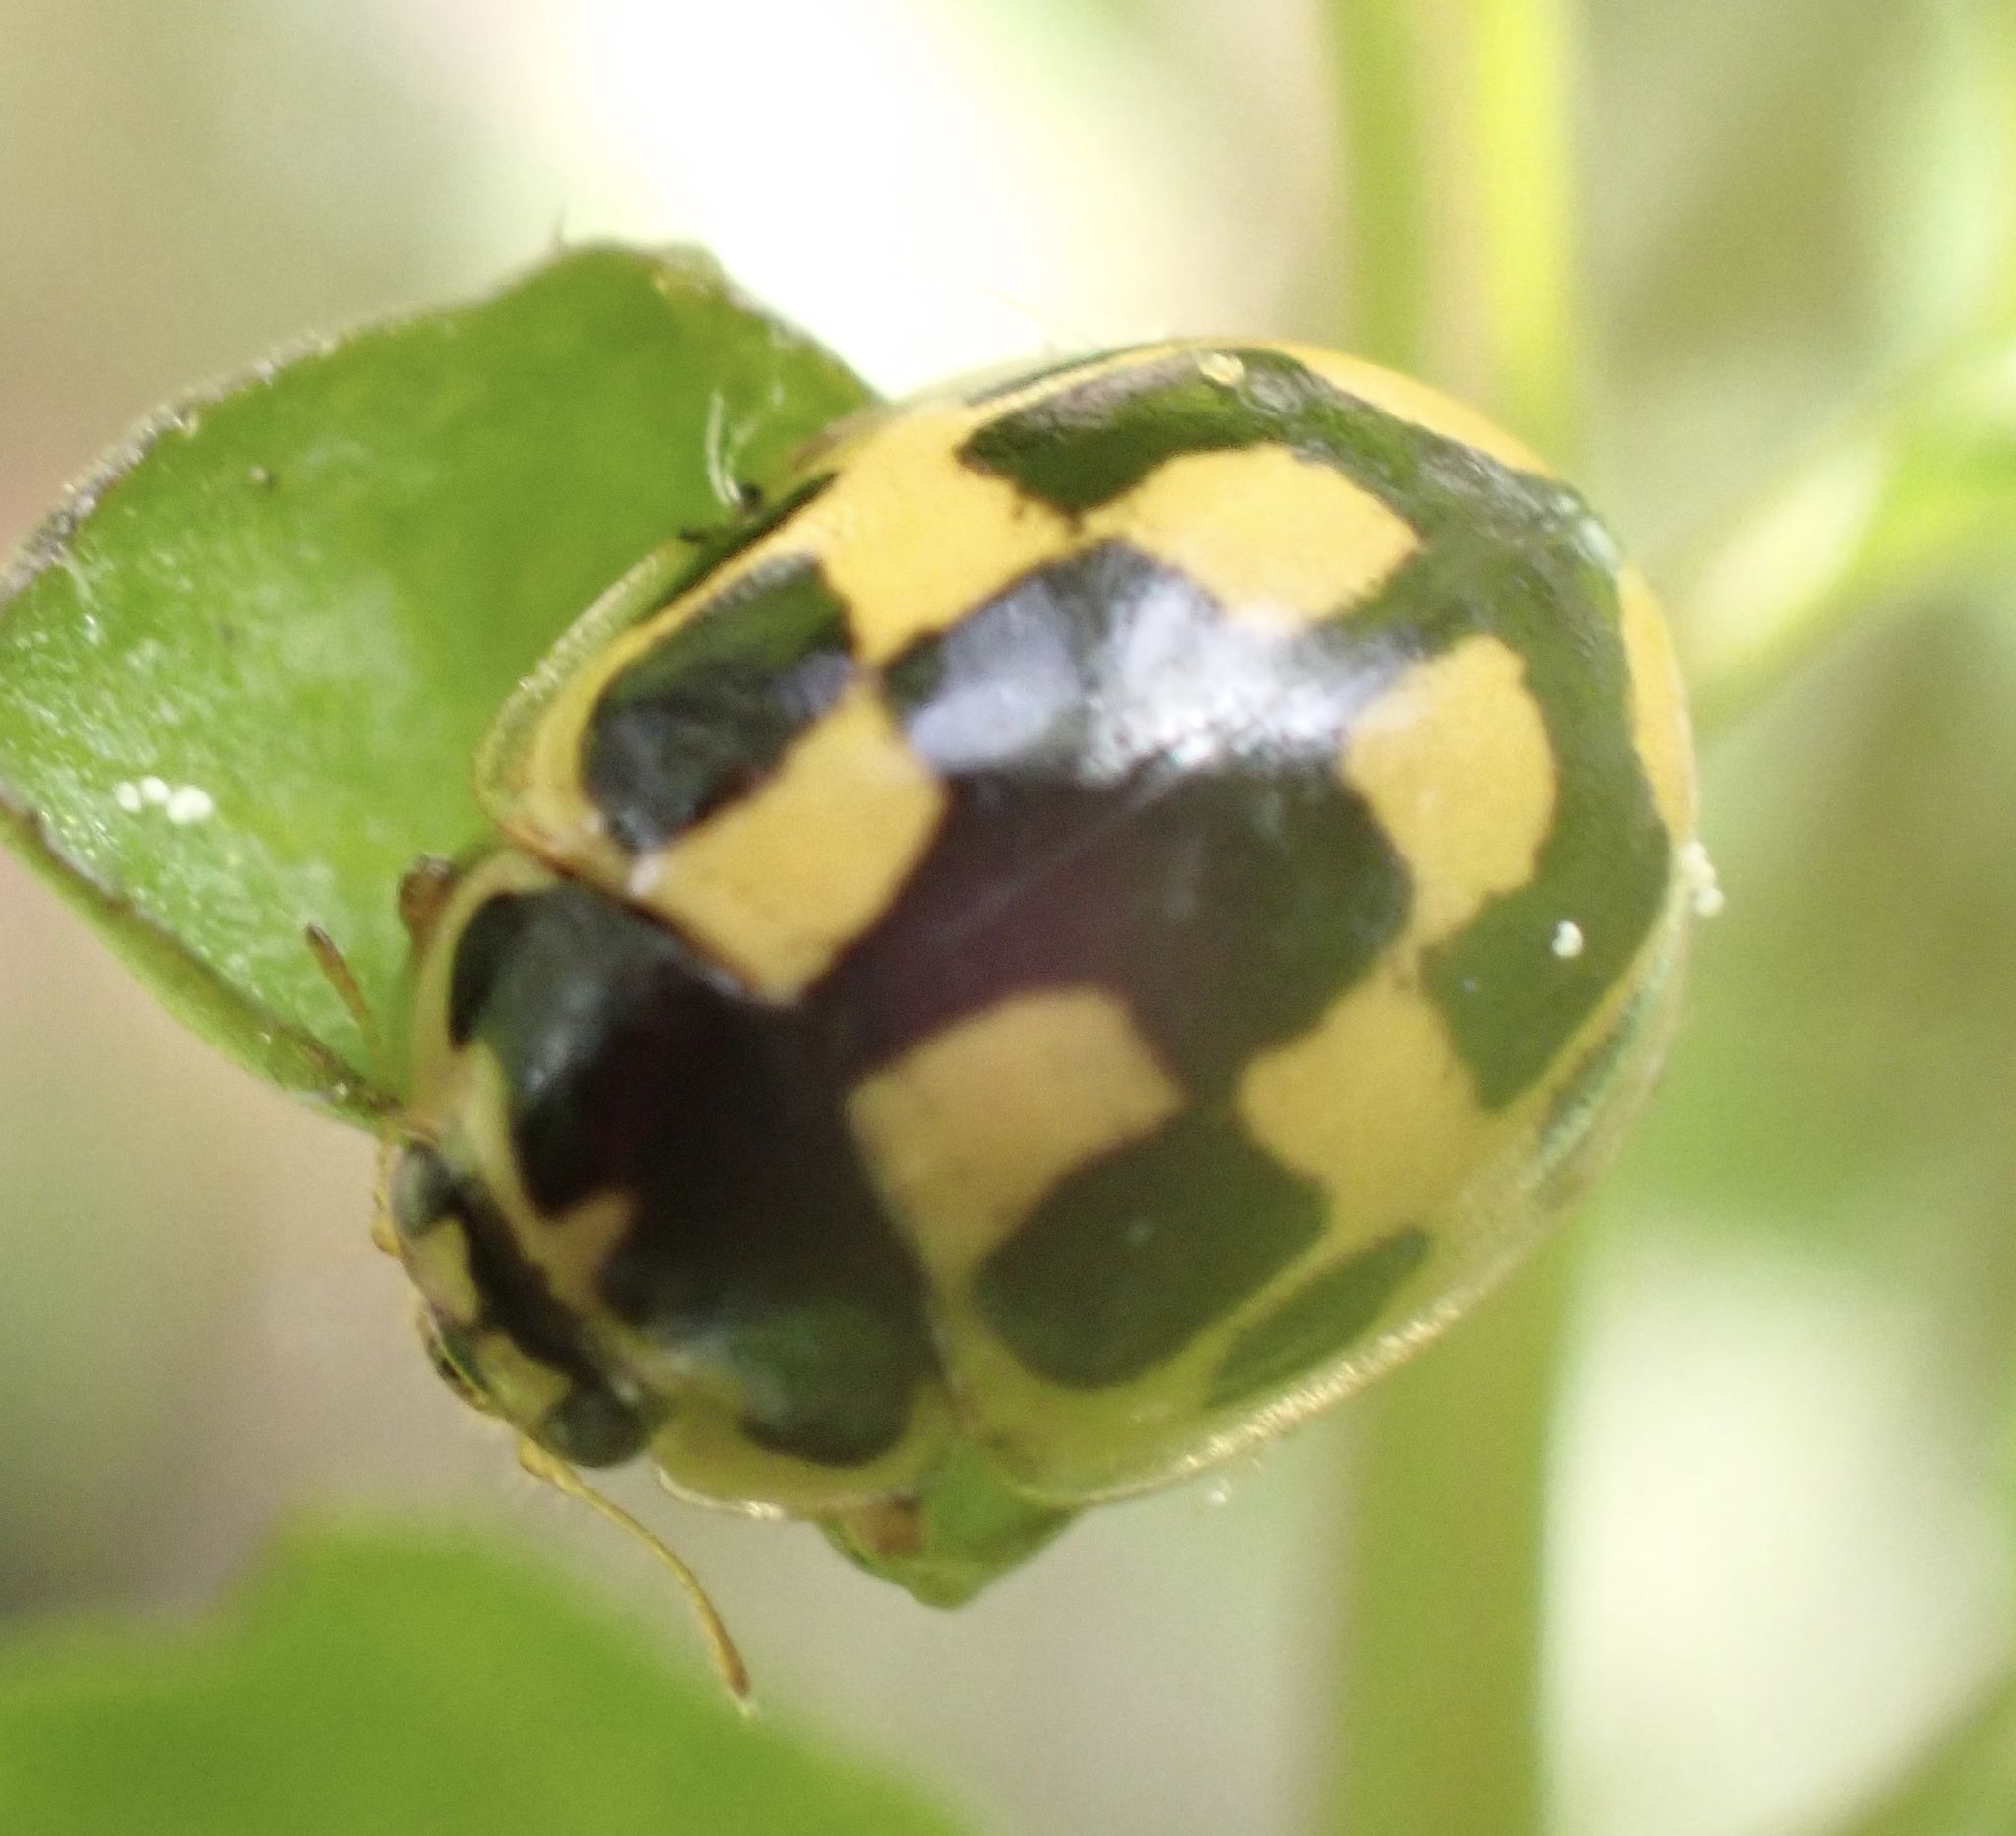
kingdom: Animalia
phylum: Arthropoda
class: Insecta
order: Coleoptera
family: Coccinellidae
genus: Propylaea
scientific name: Propylaea quatuordecimpunctata
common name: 14-spotted ladybird beetle
